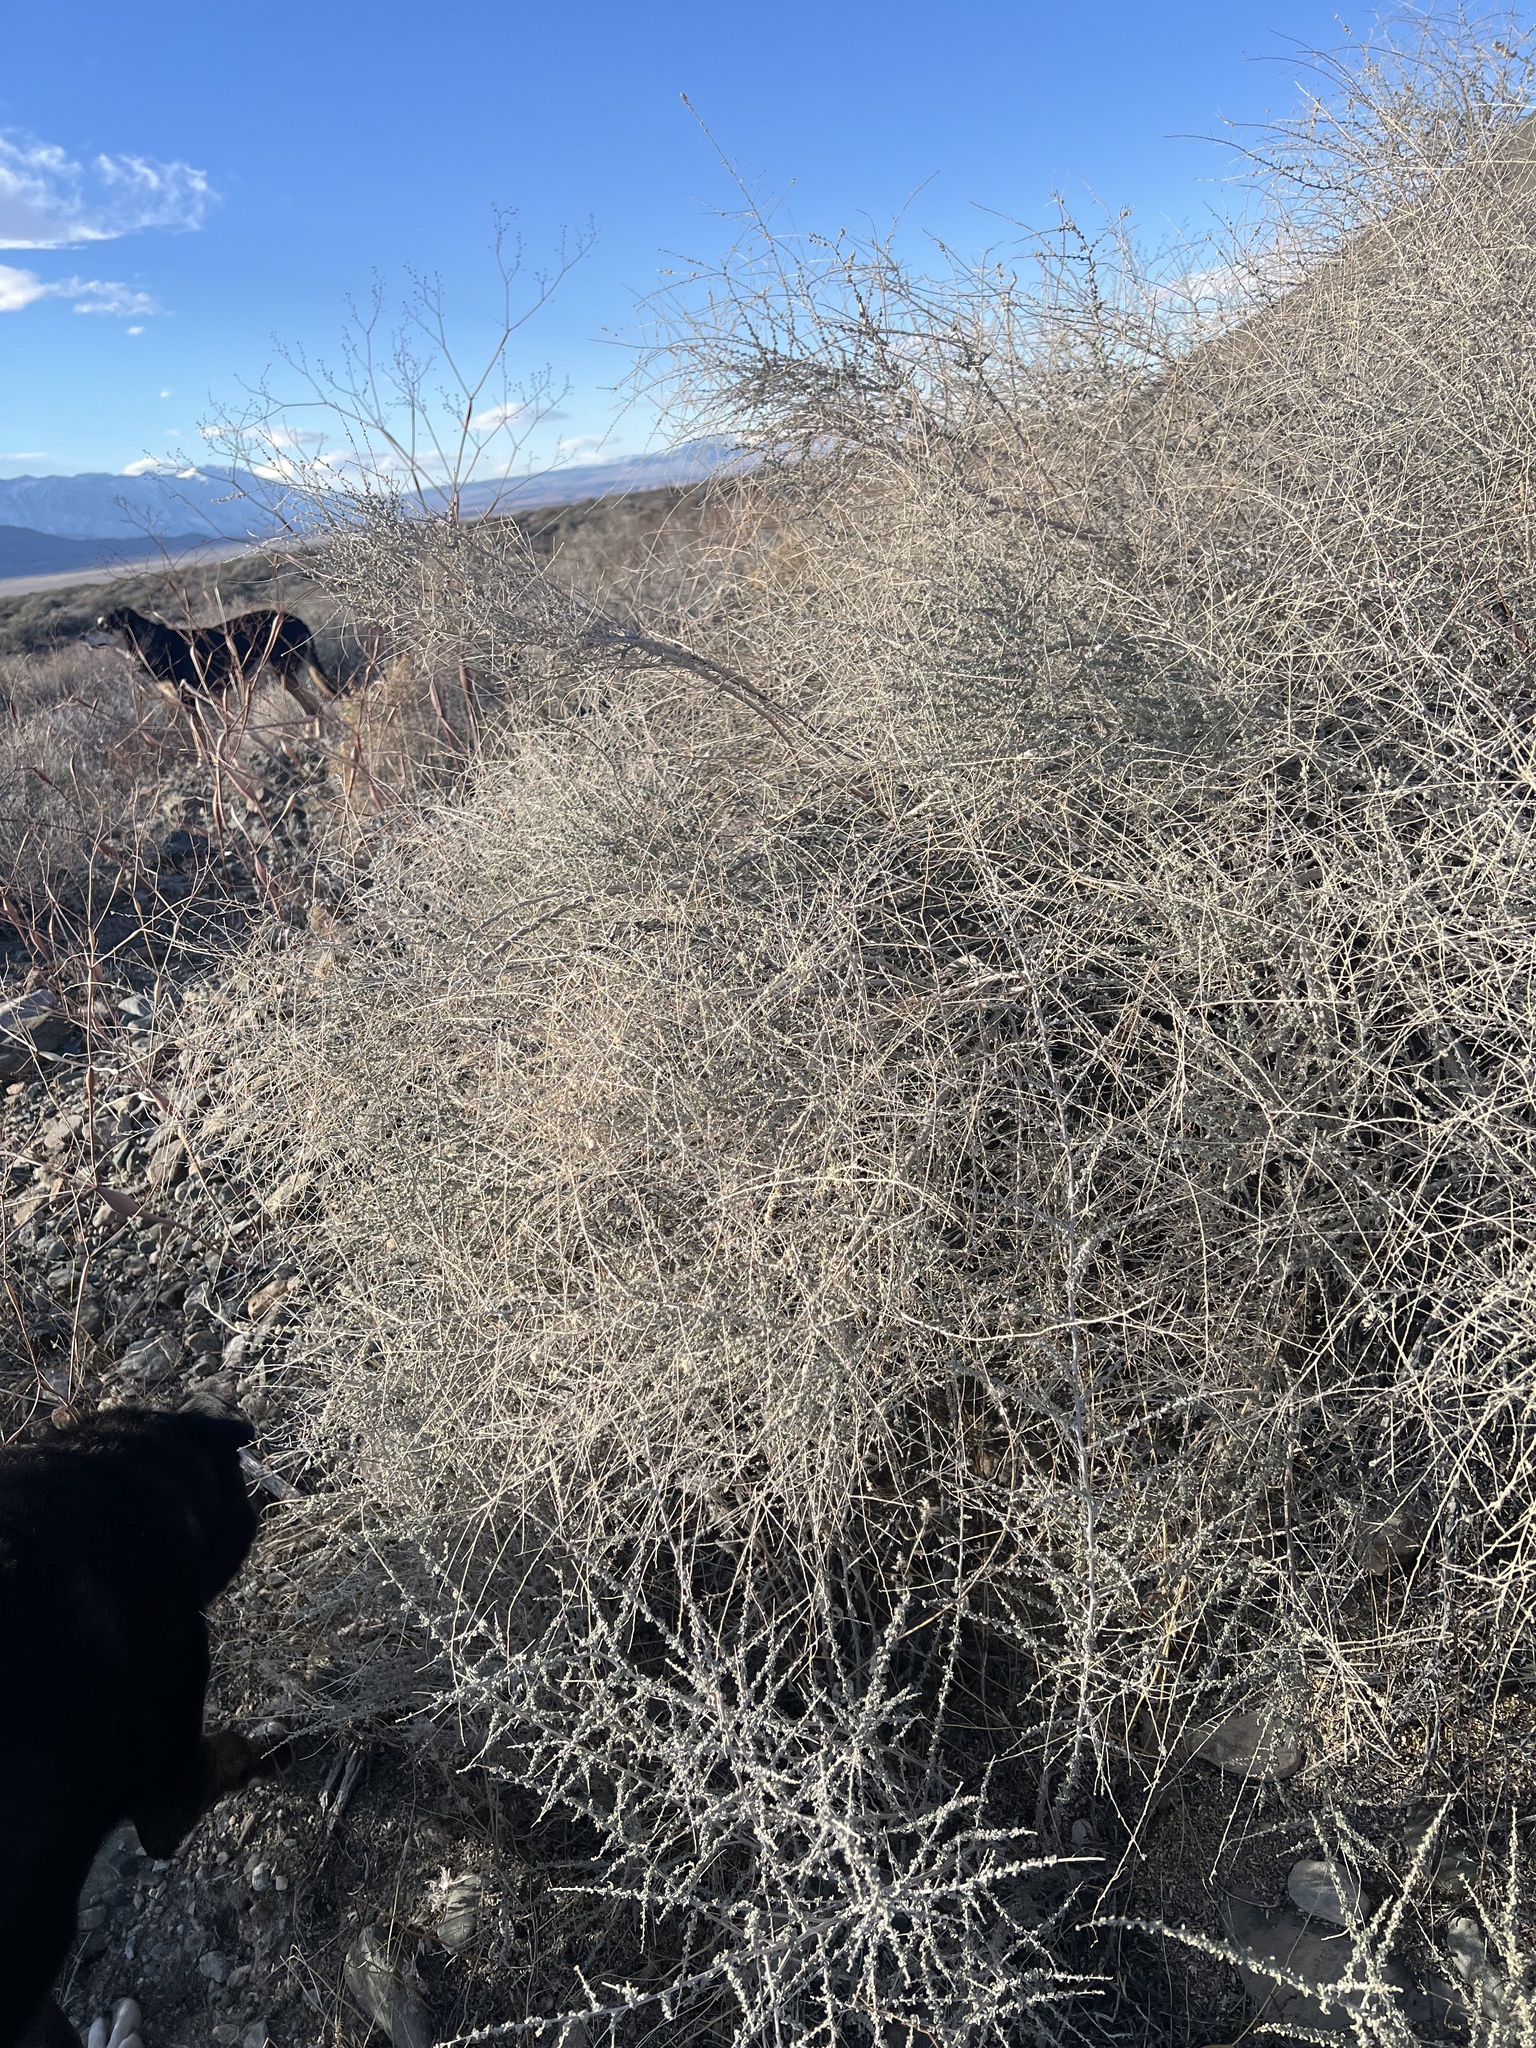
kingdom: Plantae
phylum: Tracheophyta
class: Magnoliopsida
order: Caryophyllales
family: Amaranthaceae
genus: Atriplex
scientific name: Atriplex polycarpa
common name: Desert saltbush
